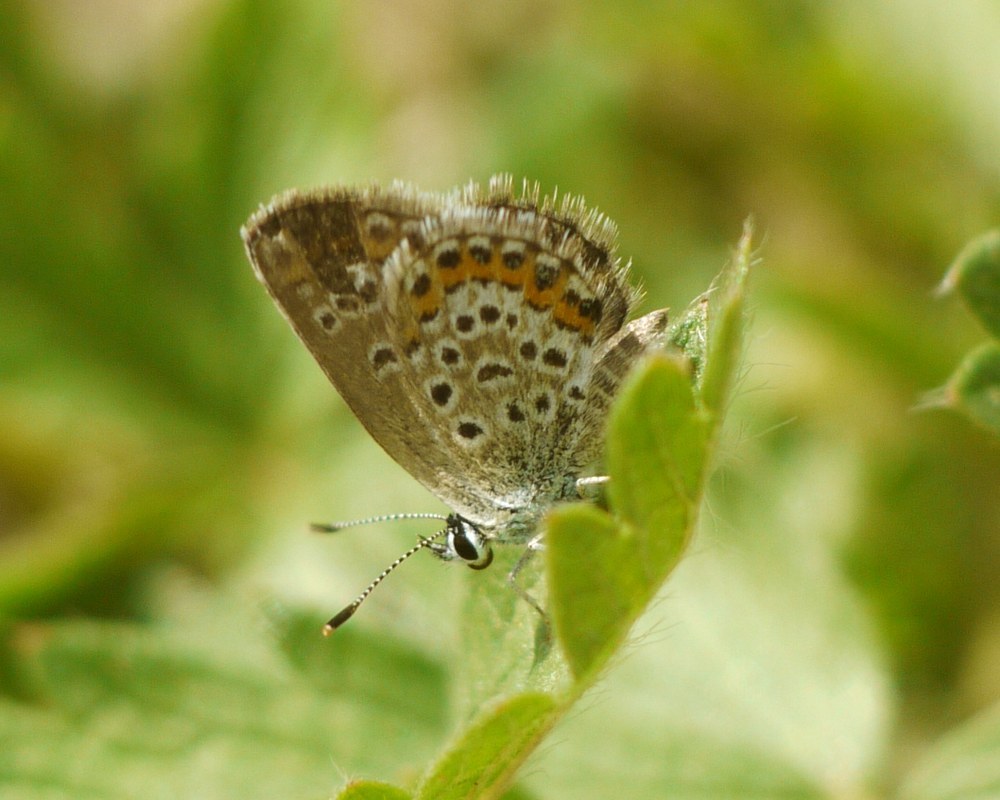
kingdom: Animalia
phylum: Arthropoda
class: Insecta
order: Lepidoptera
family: Lycaenidae
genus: Plebejus
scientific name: Plebejus argus
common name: Silver-studded blue
